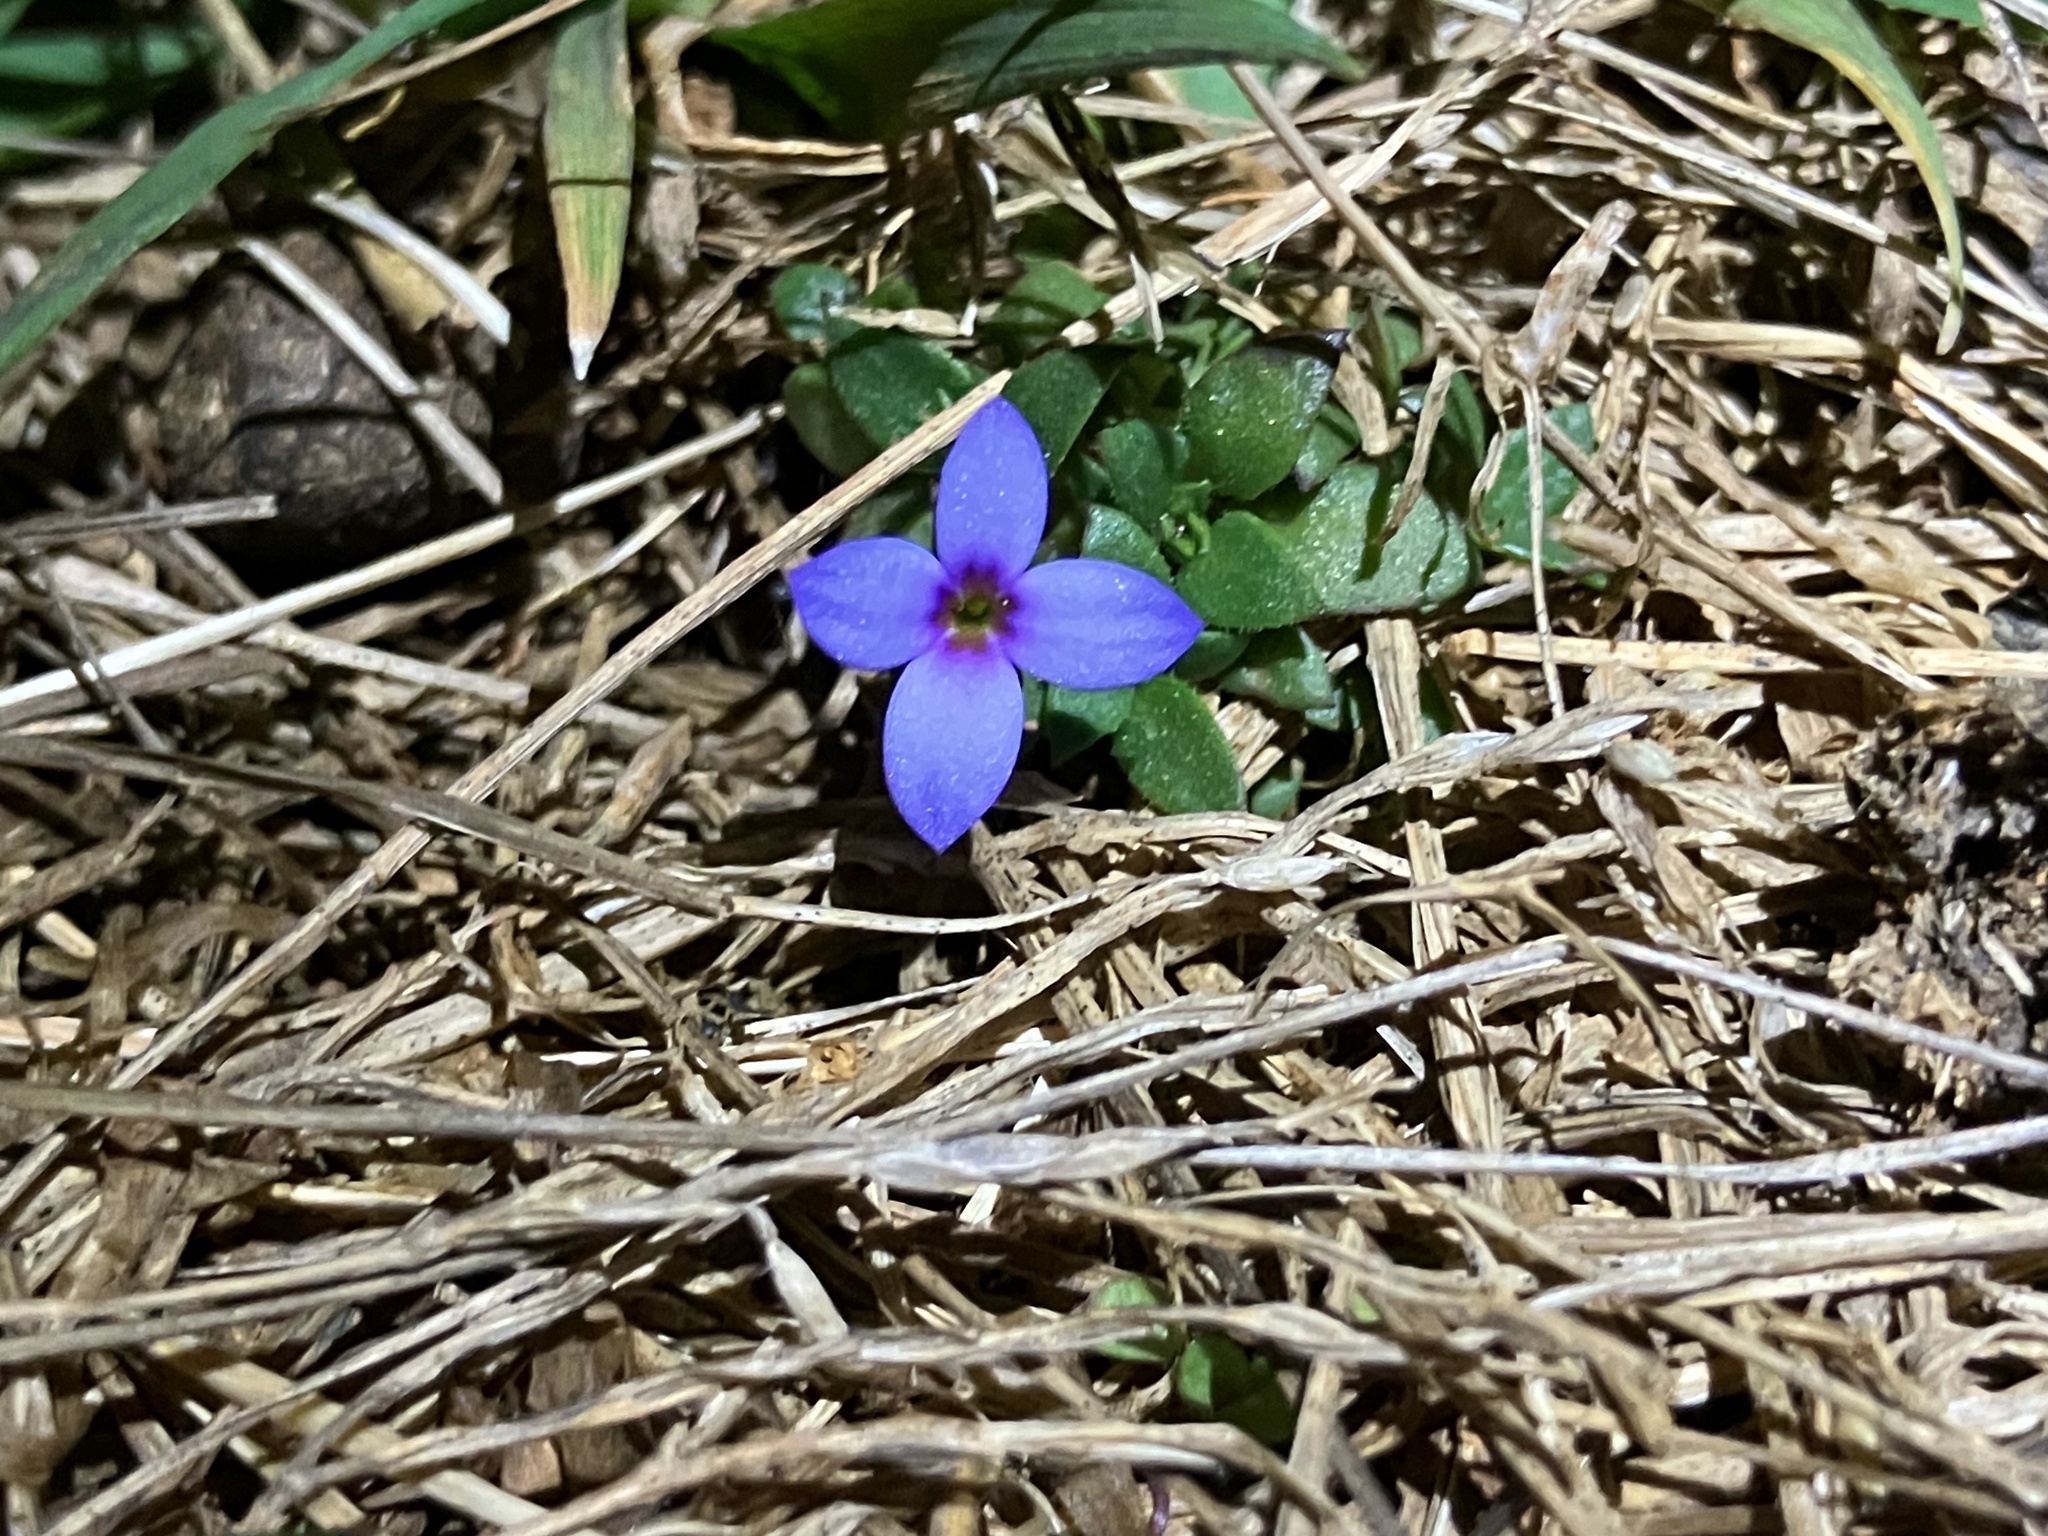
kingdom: Plantae
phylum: Tracheophyta
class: Magnoliopsida
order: Gentianales
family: Rubiaceae
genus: Houstonia
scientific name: Houstonia pusilla
